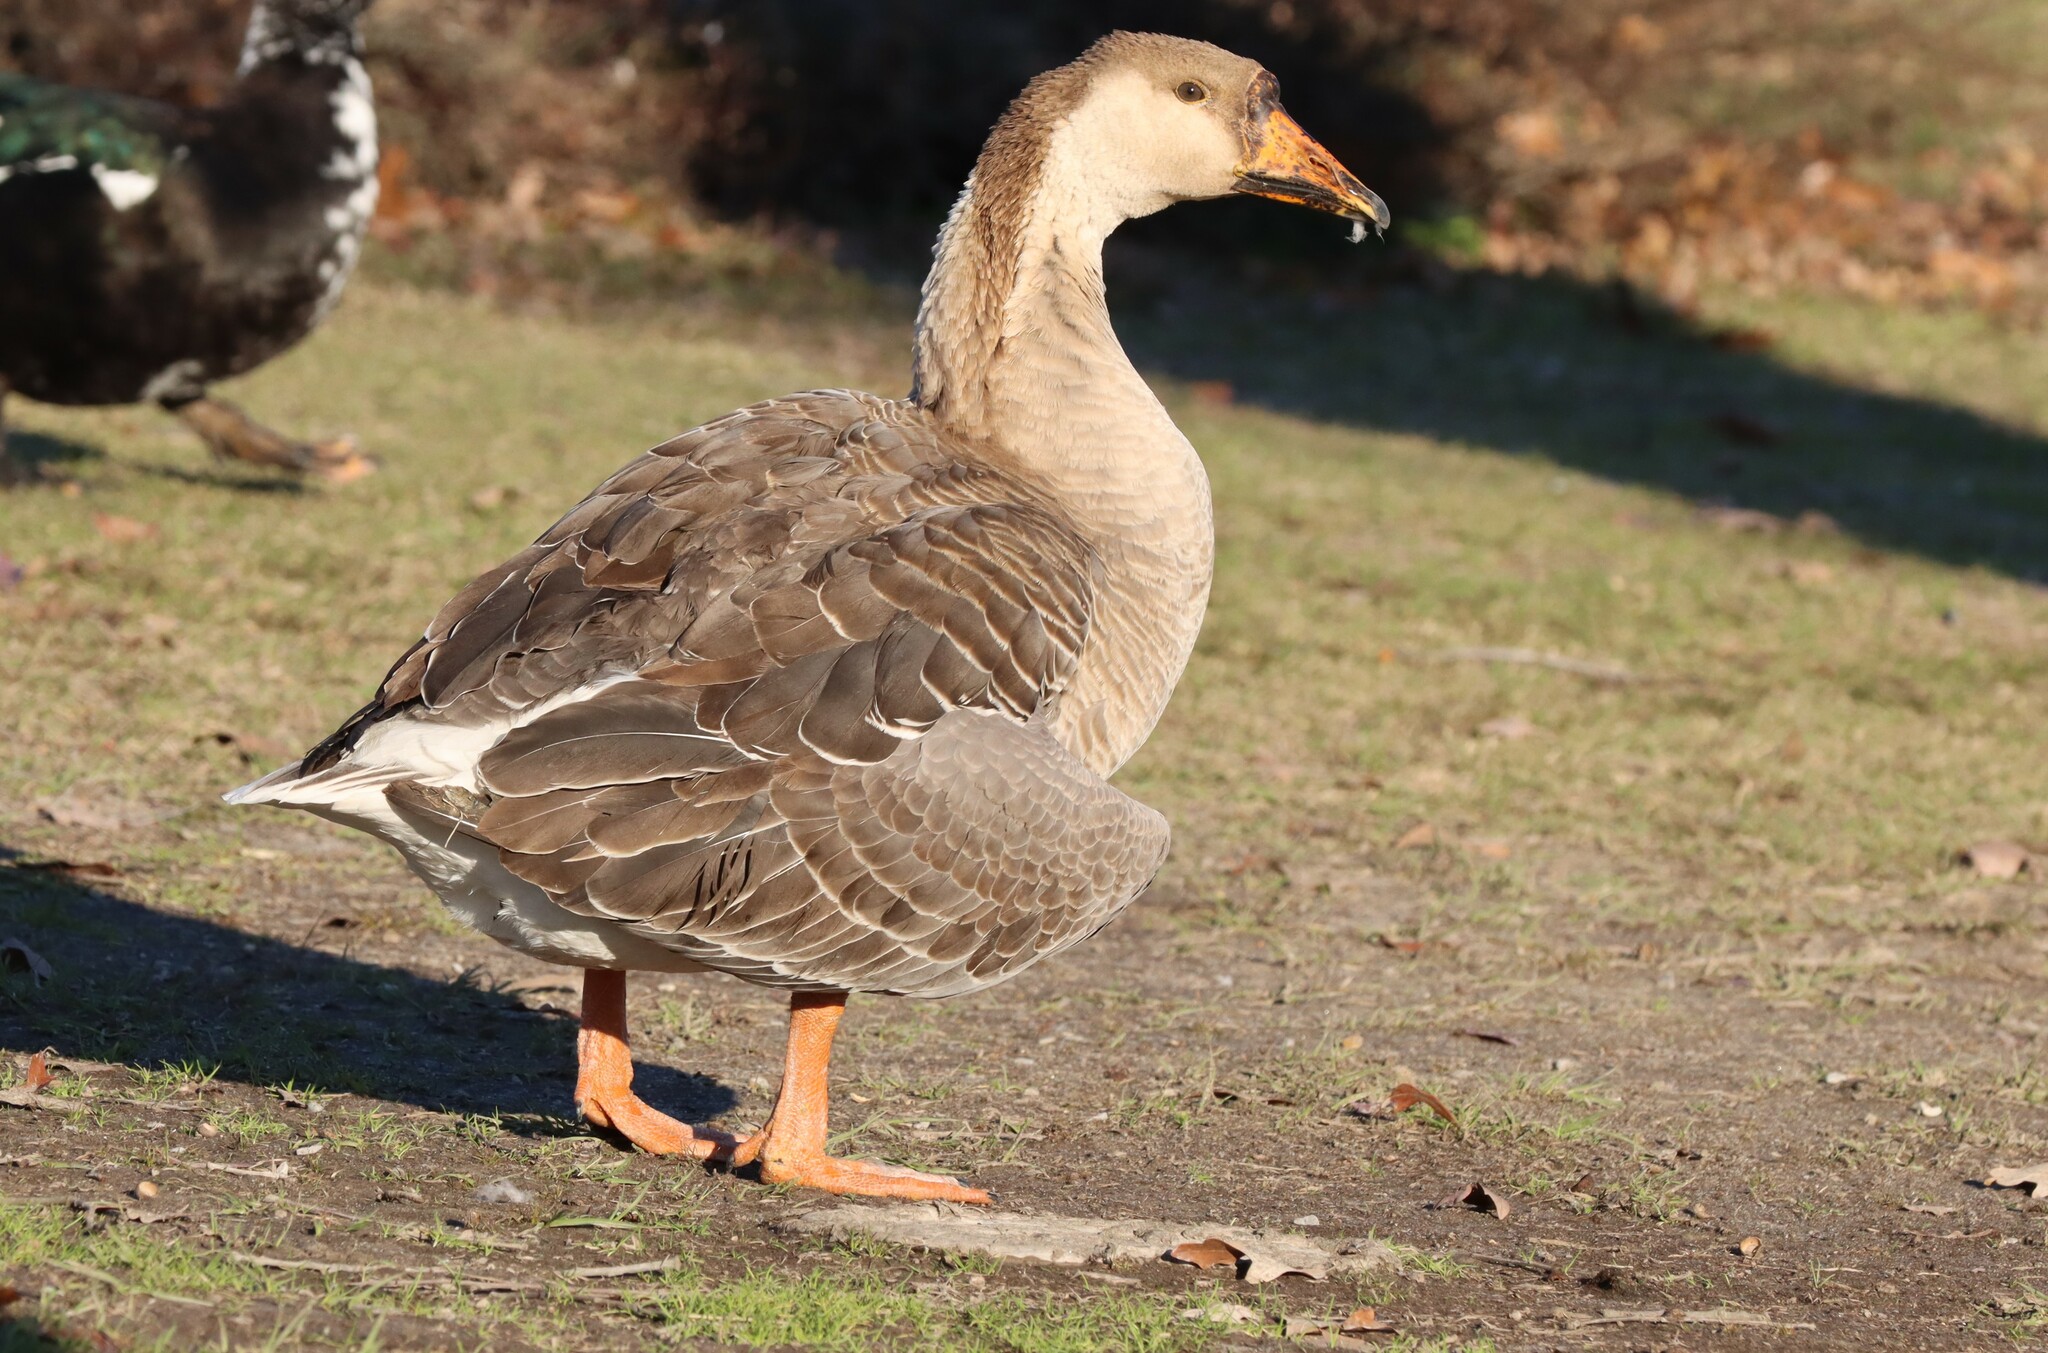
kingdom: Animalia
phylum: Chordata
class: Aves
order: Anseriformes
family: Anatidae
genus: Anser
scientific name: Anser cygnoides
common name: Swan goose
